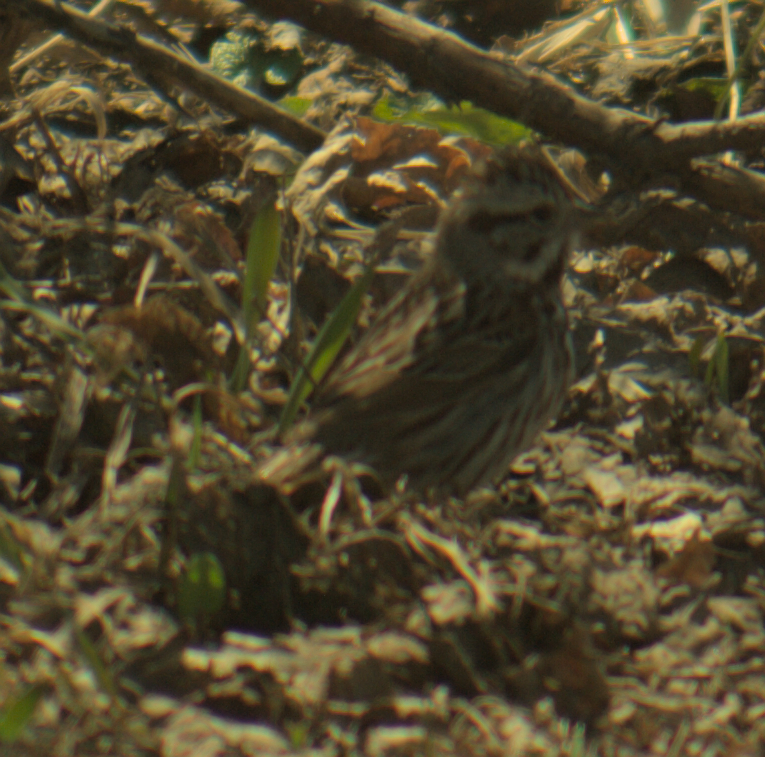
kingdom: Animalia
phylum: Chordata
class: Aves
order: Passeriformes
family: Passerellidae
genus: Melospiza
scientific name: Melospiza melodia
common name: Song sparrow
